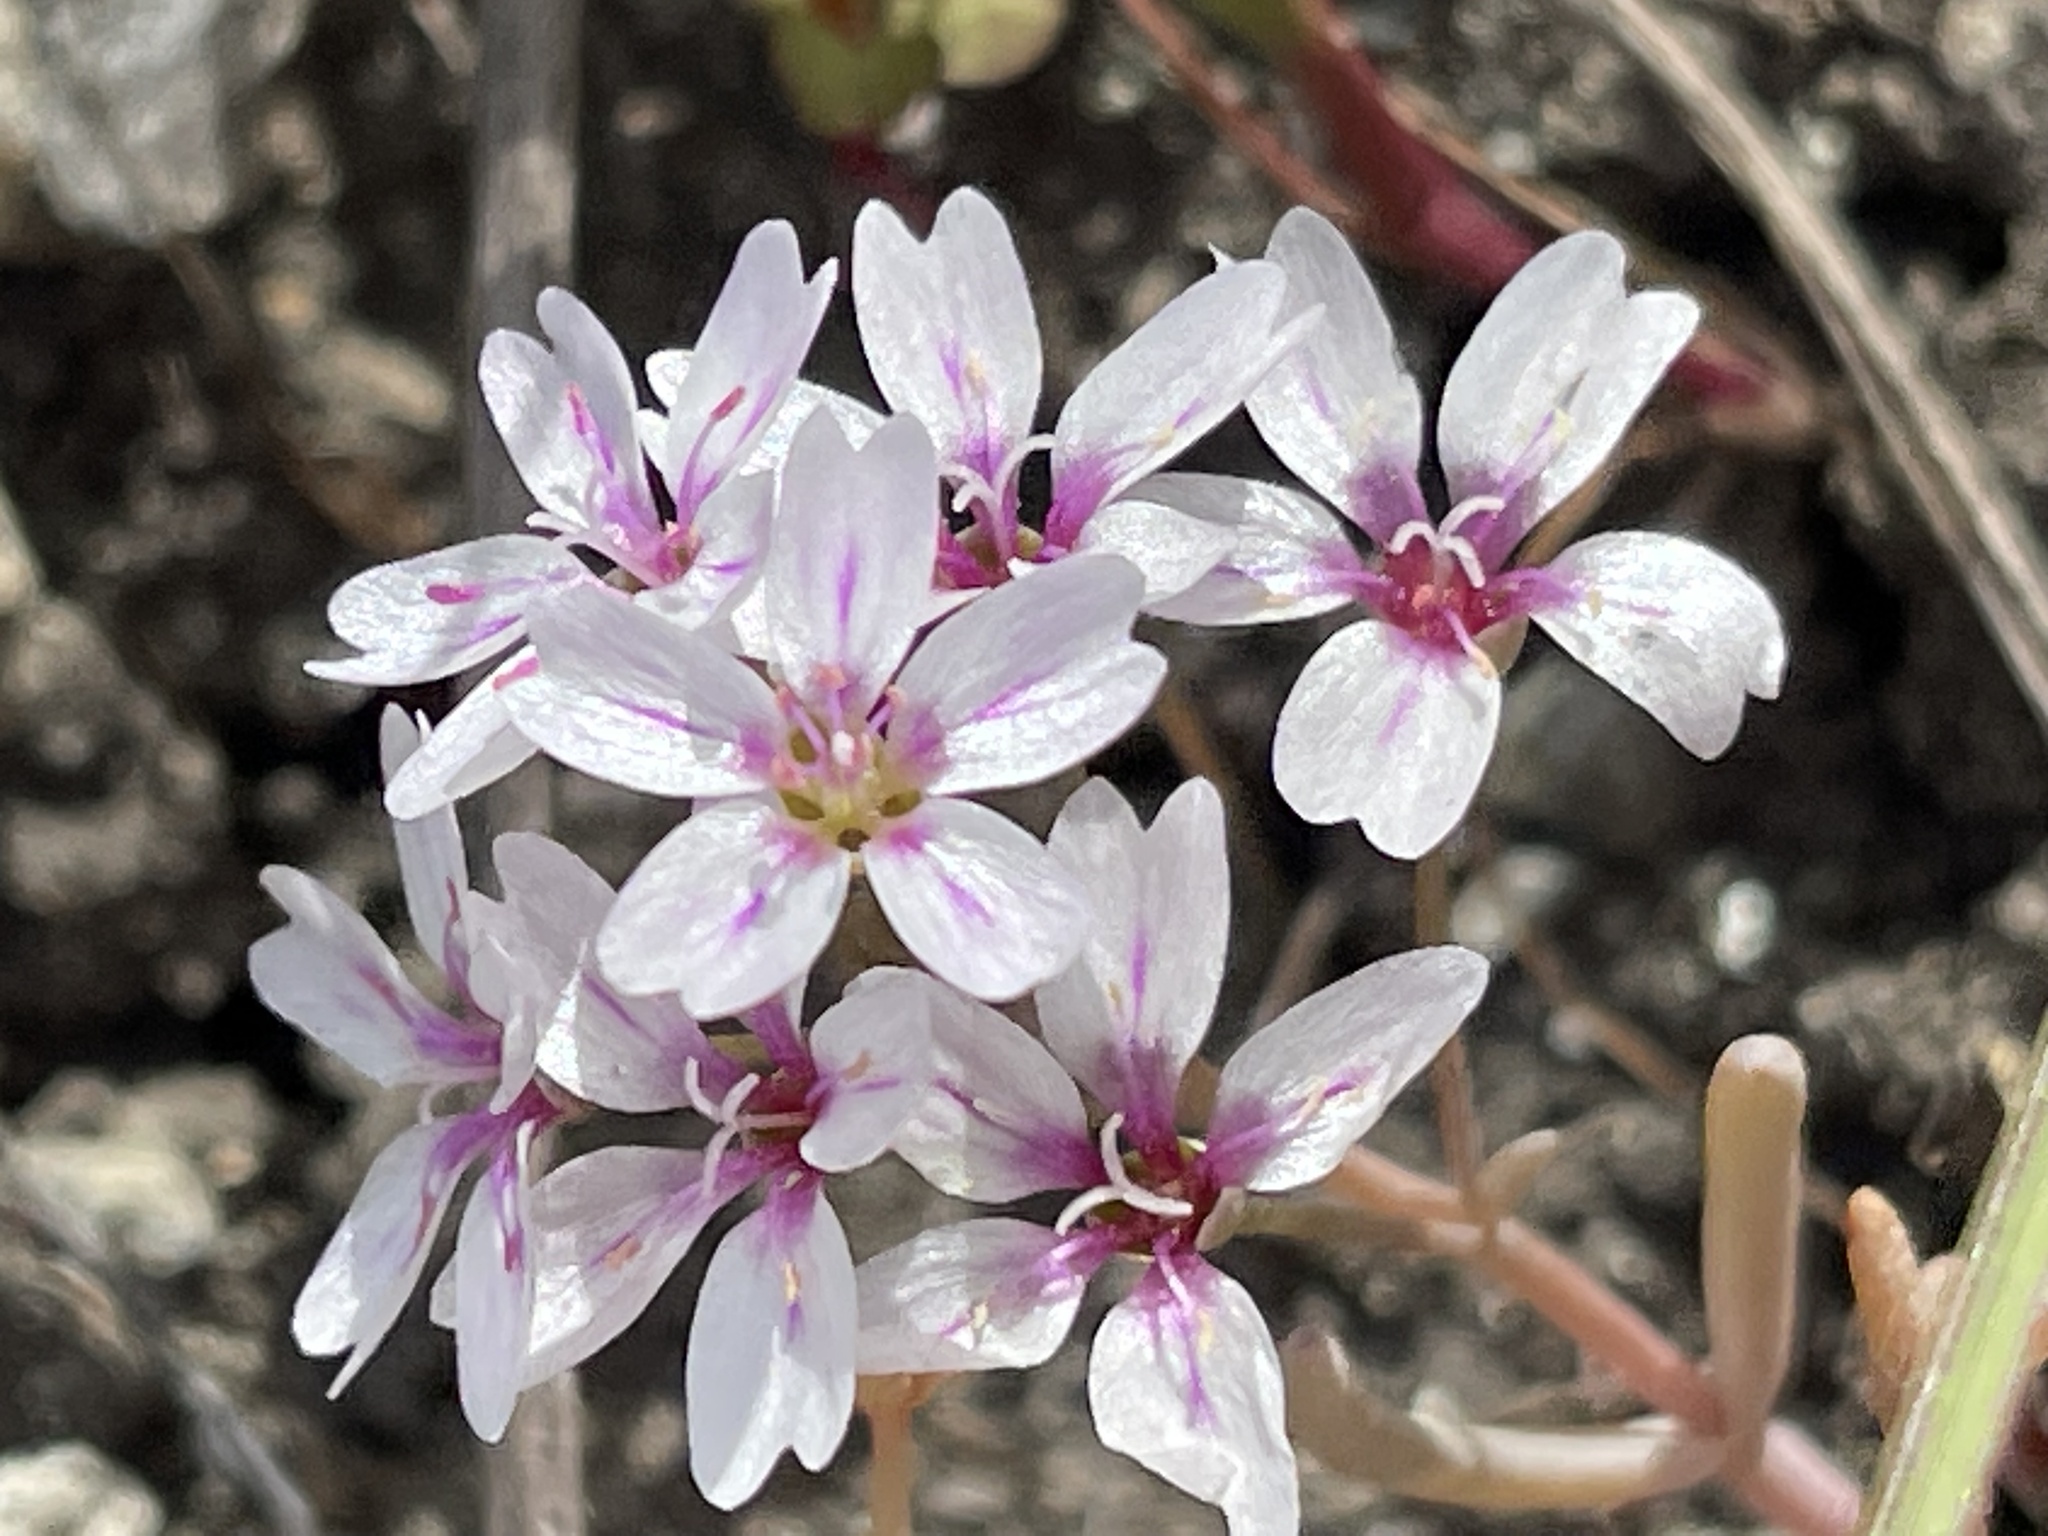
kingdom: Plantae
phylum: Tracheophyta
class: Magnoliopsida
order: Caryophyllales
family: Montiaceae
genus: Claytonia
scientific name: Claytonia gypsophiloides
